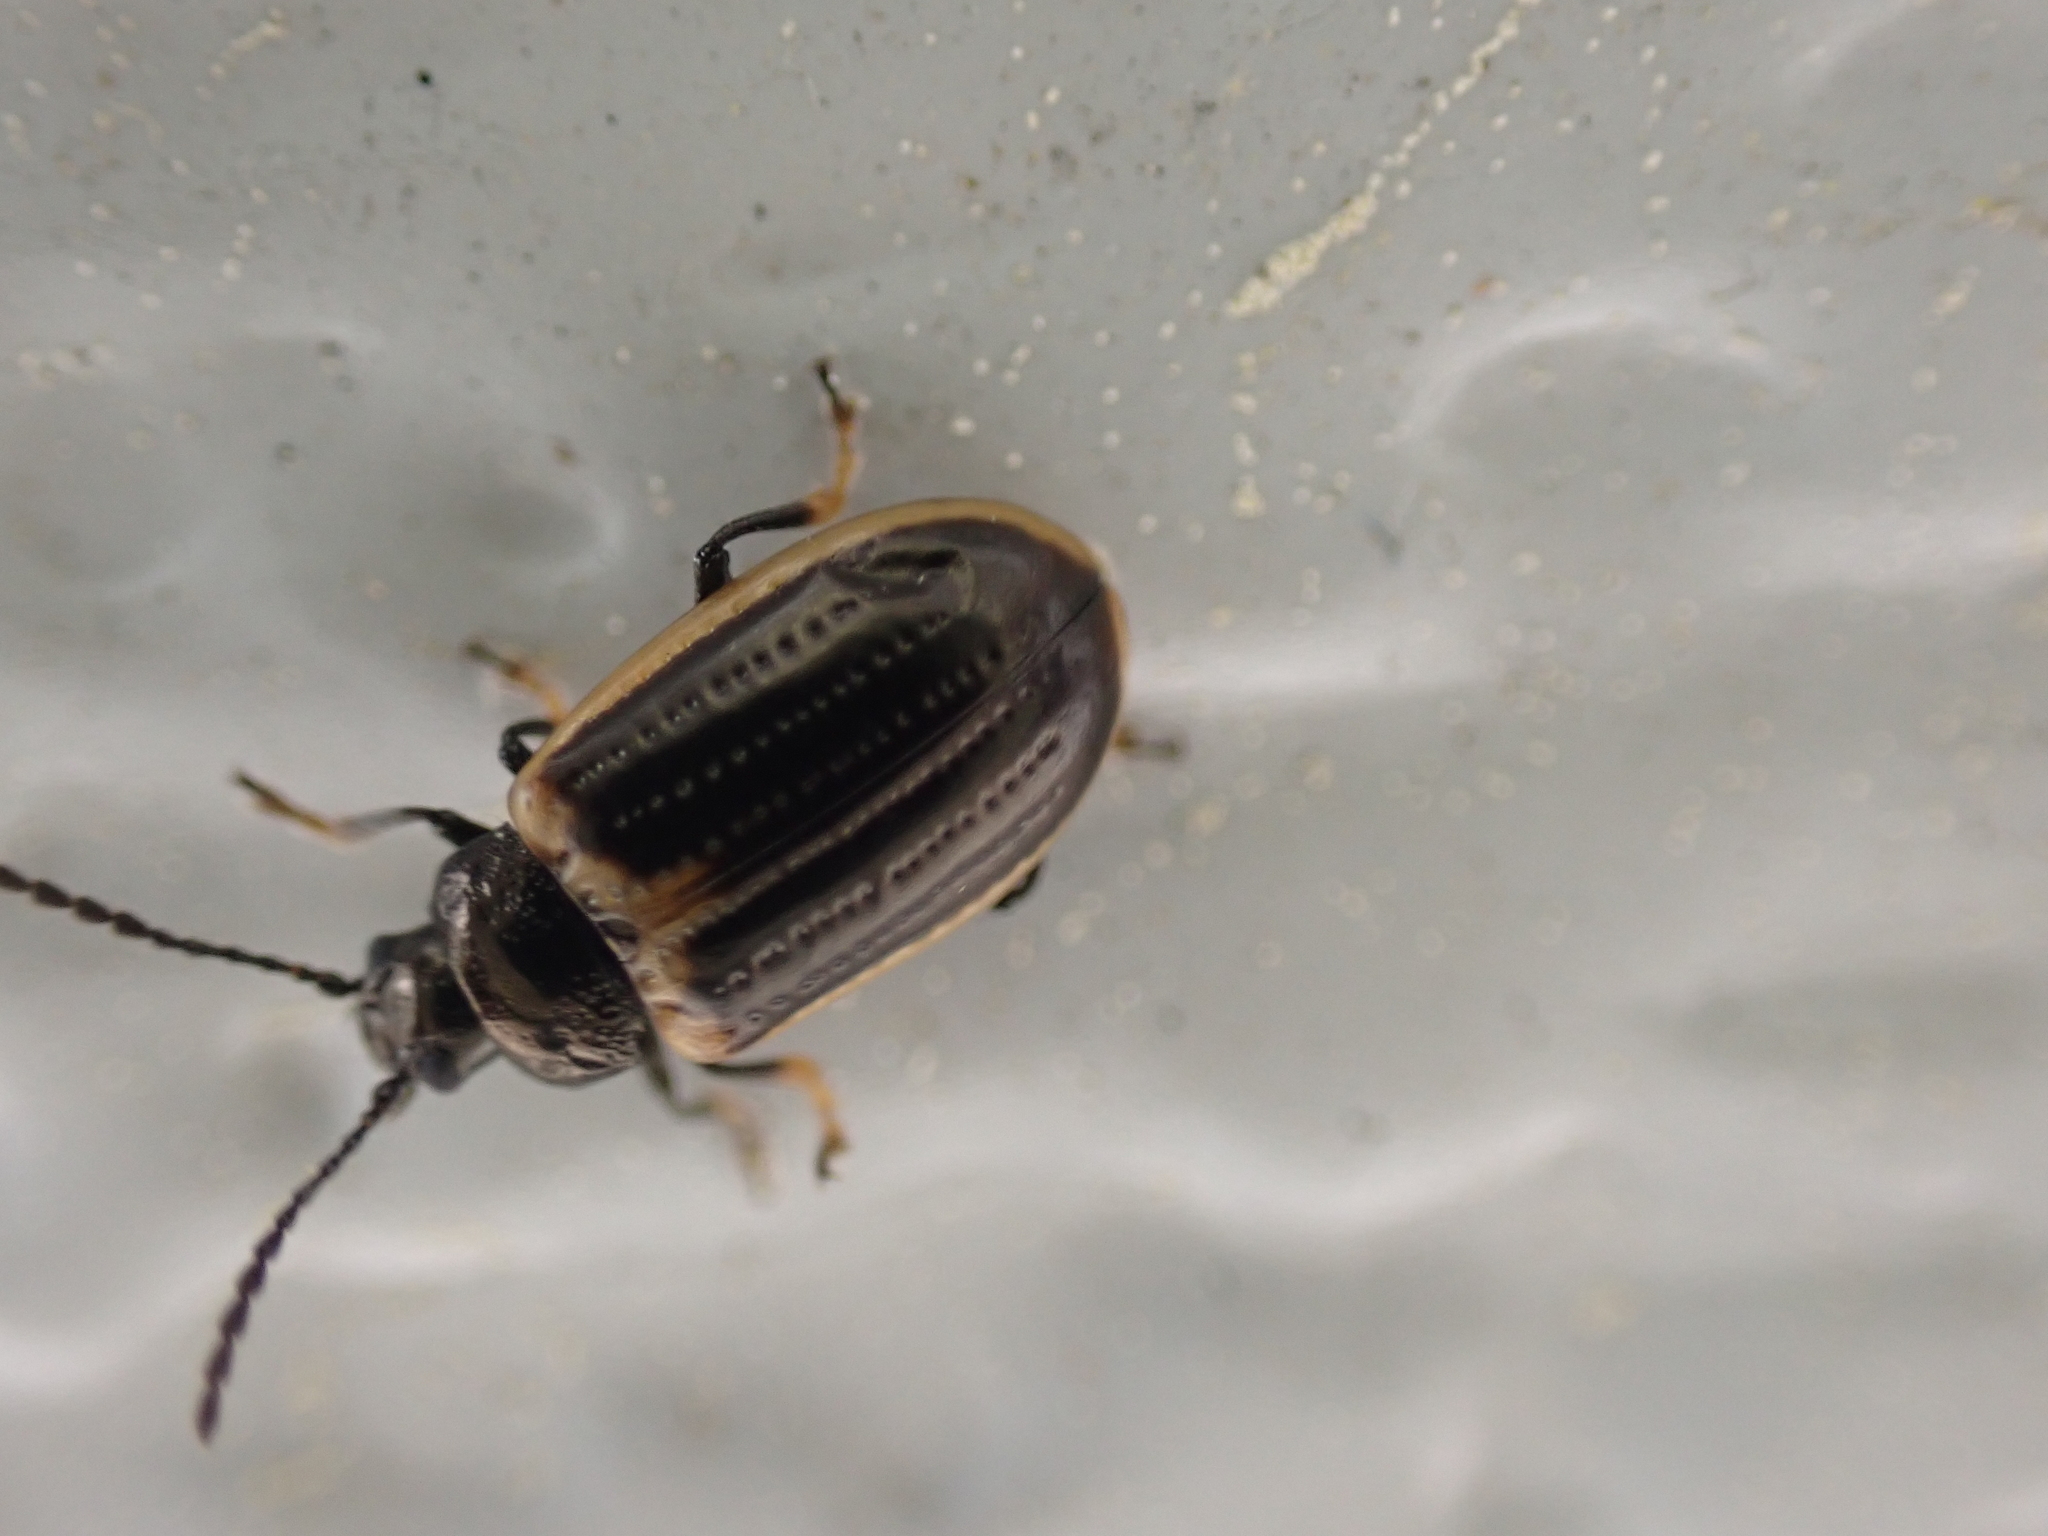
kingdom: Animalia
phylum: Arthropoda
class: Insecta
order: Coleoptera
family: Chrysomelidae
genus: Microtheca
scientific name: Microtheca ochroloma
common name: Leaf beetle
